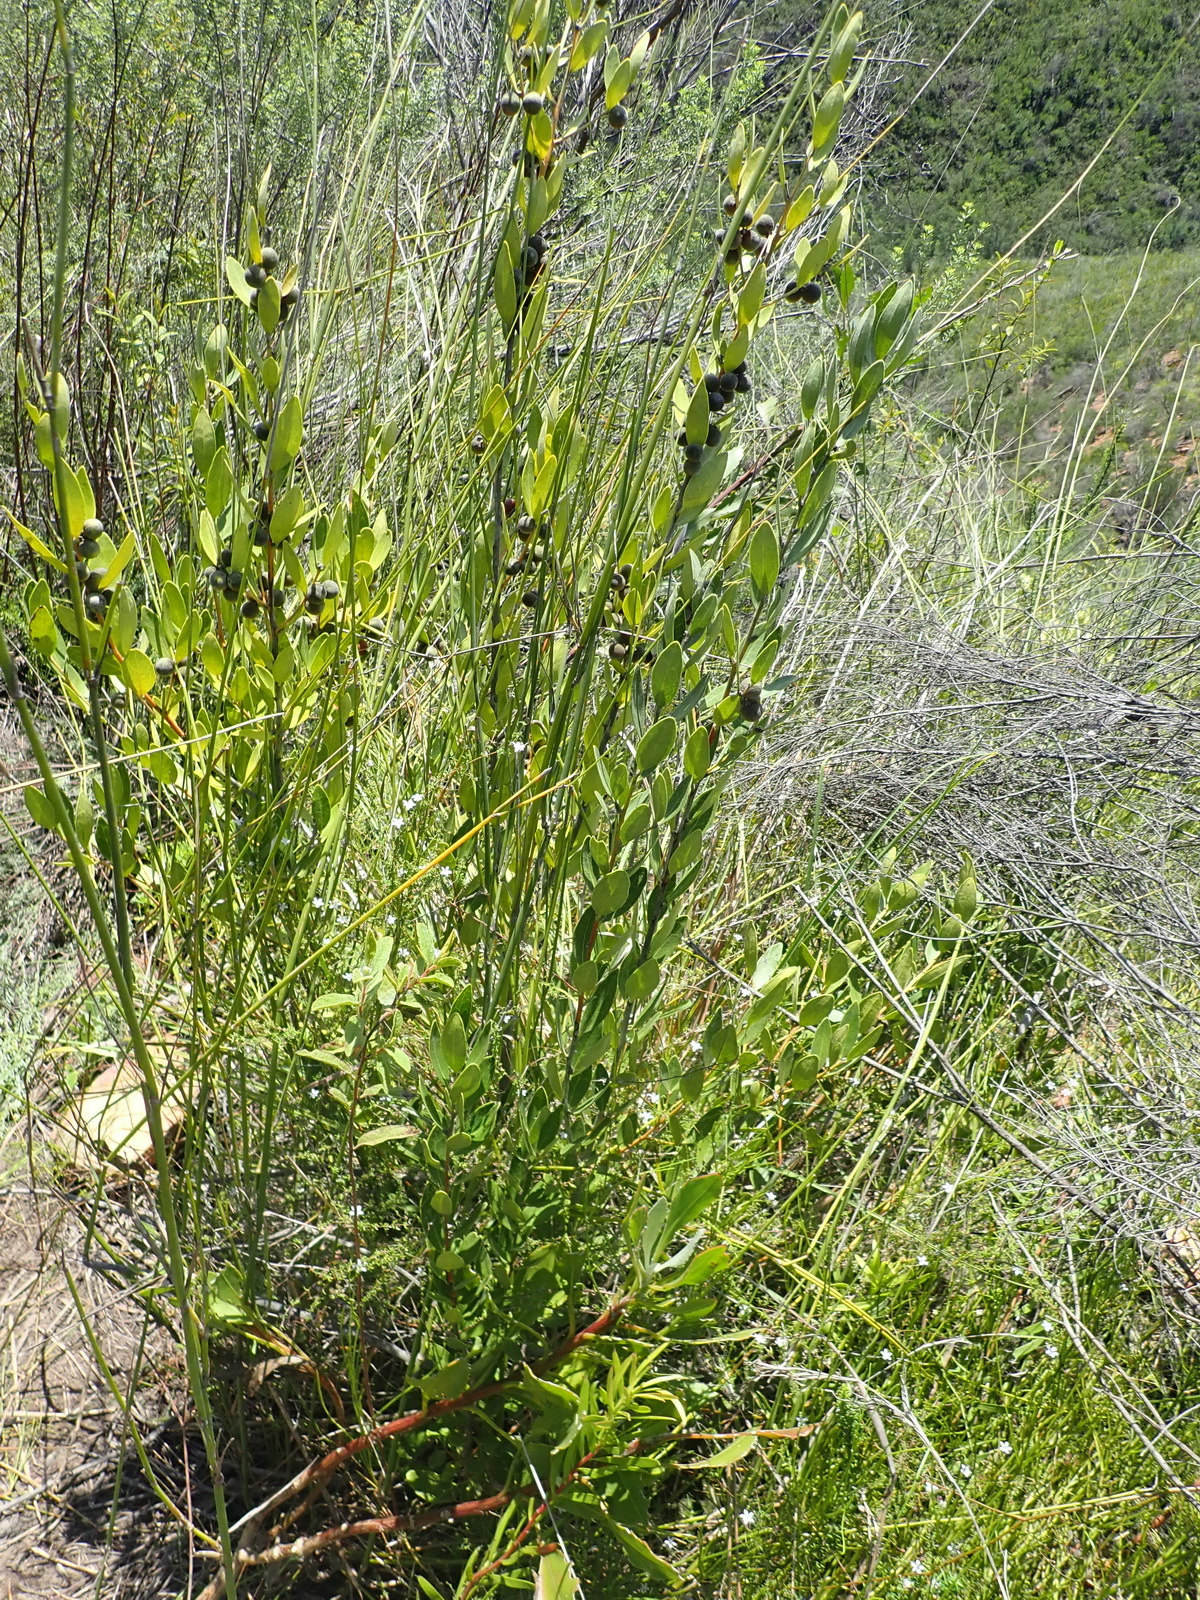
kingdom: Plantae
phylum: Tracheophyta
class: Magnoliopsida
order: Ericales
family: Ebenaceae
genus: Euclea
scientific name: Euclea polyandra
